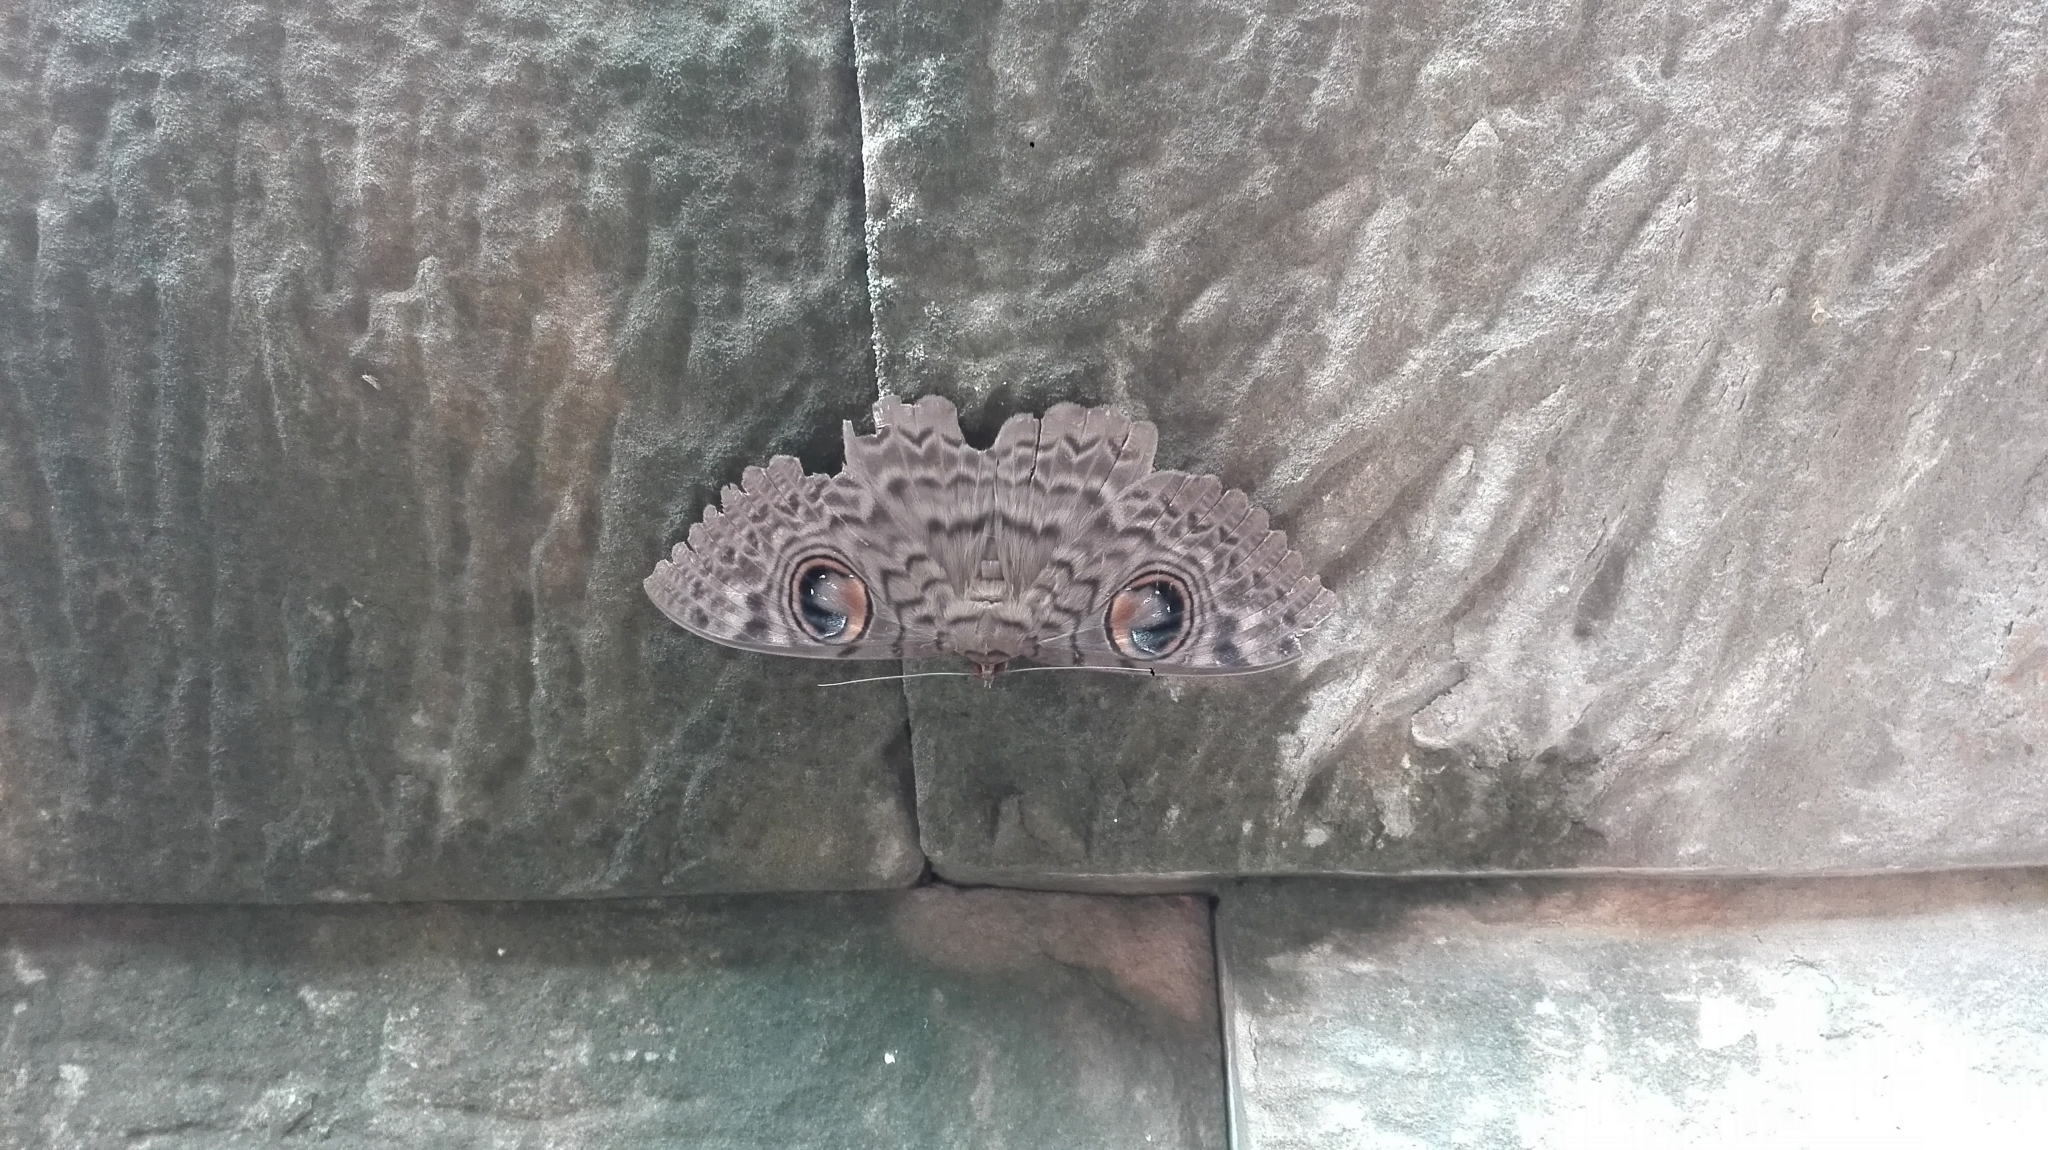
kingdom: Animalia
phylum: Arthropoda
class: Insecta
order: Lepidoptera
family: Erebidae
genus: Erebus
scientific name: Erebus macrops
